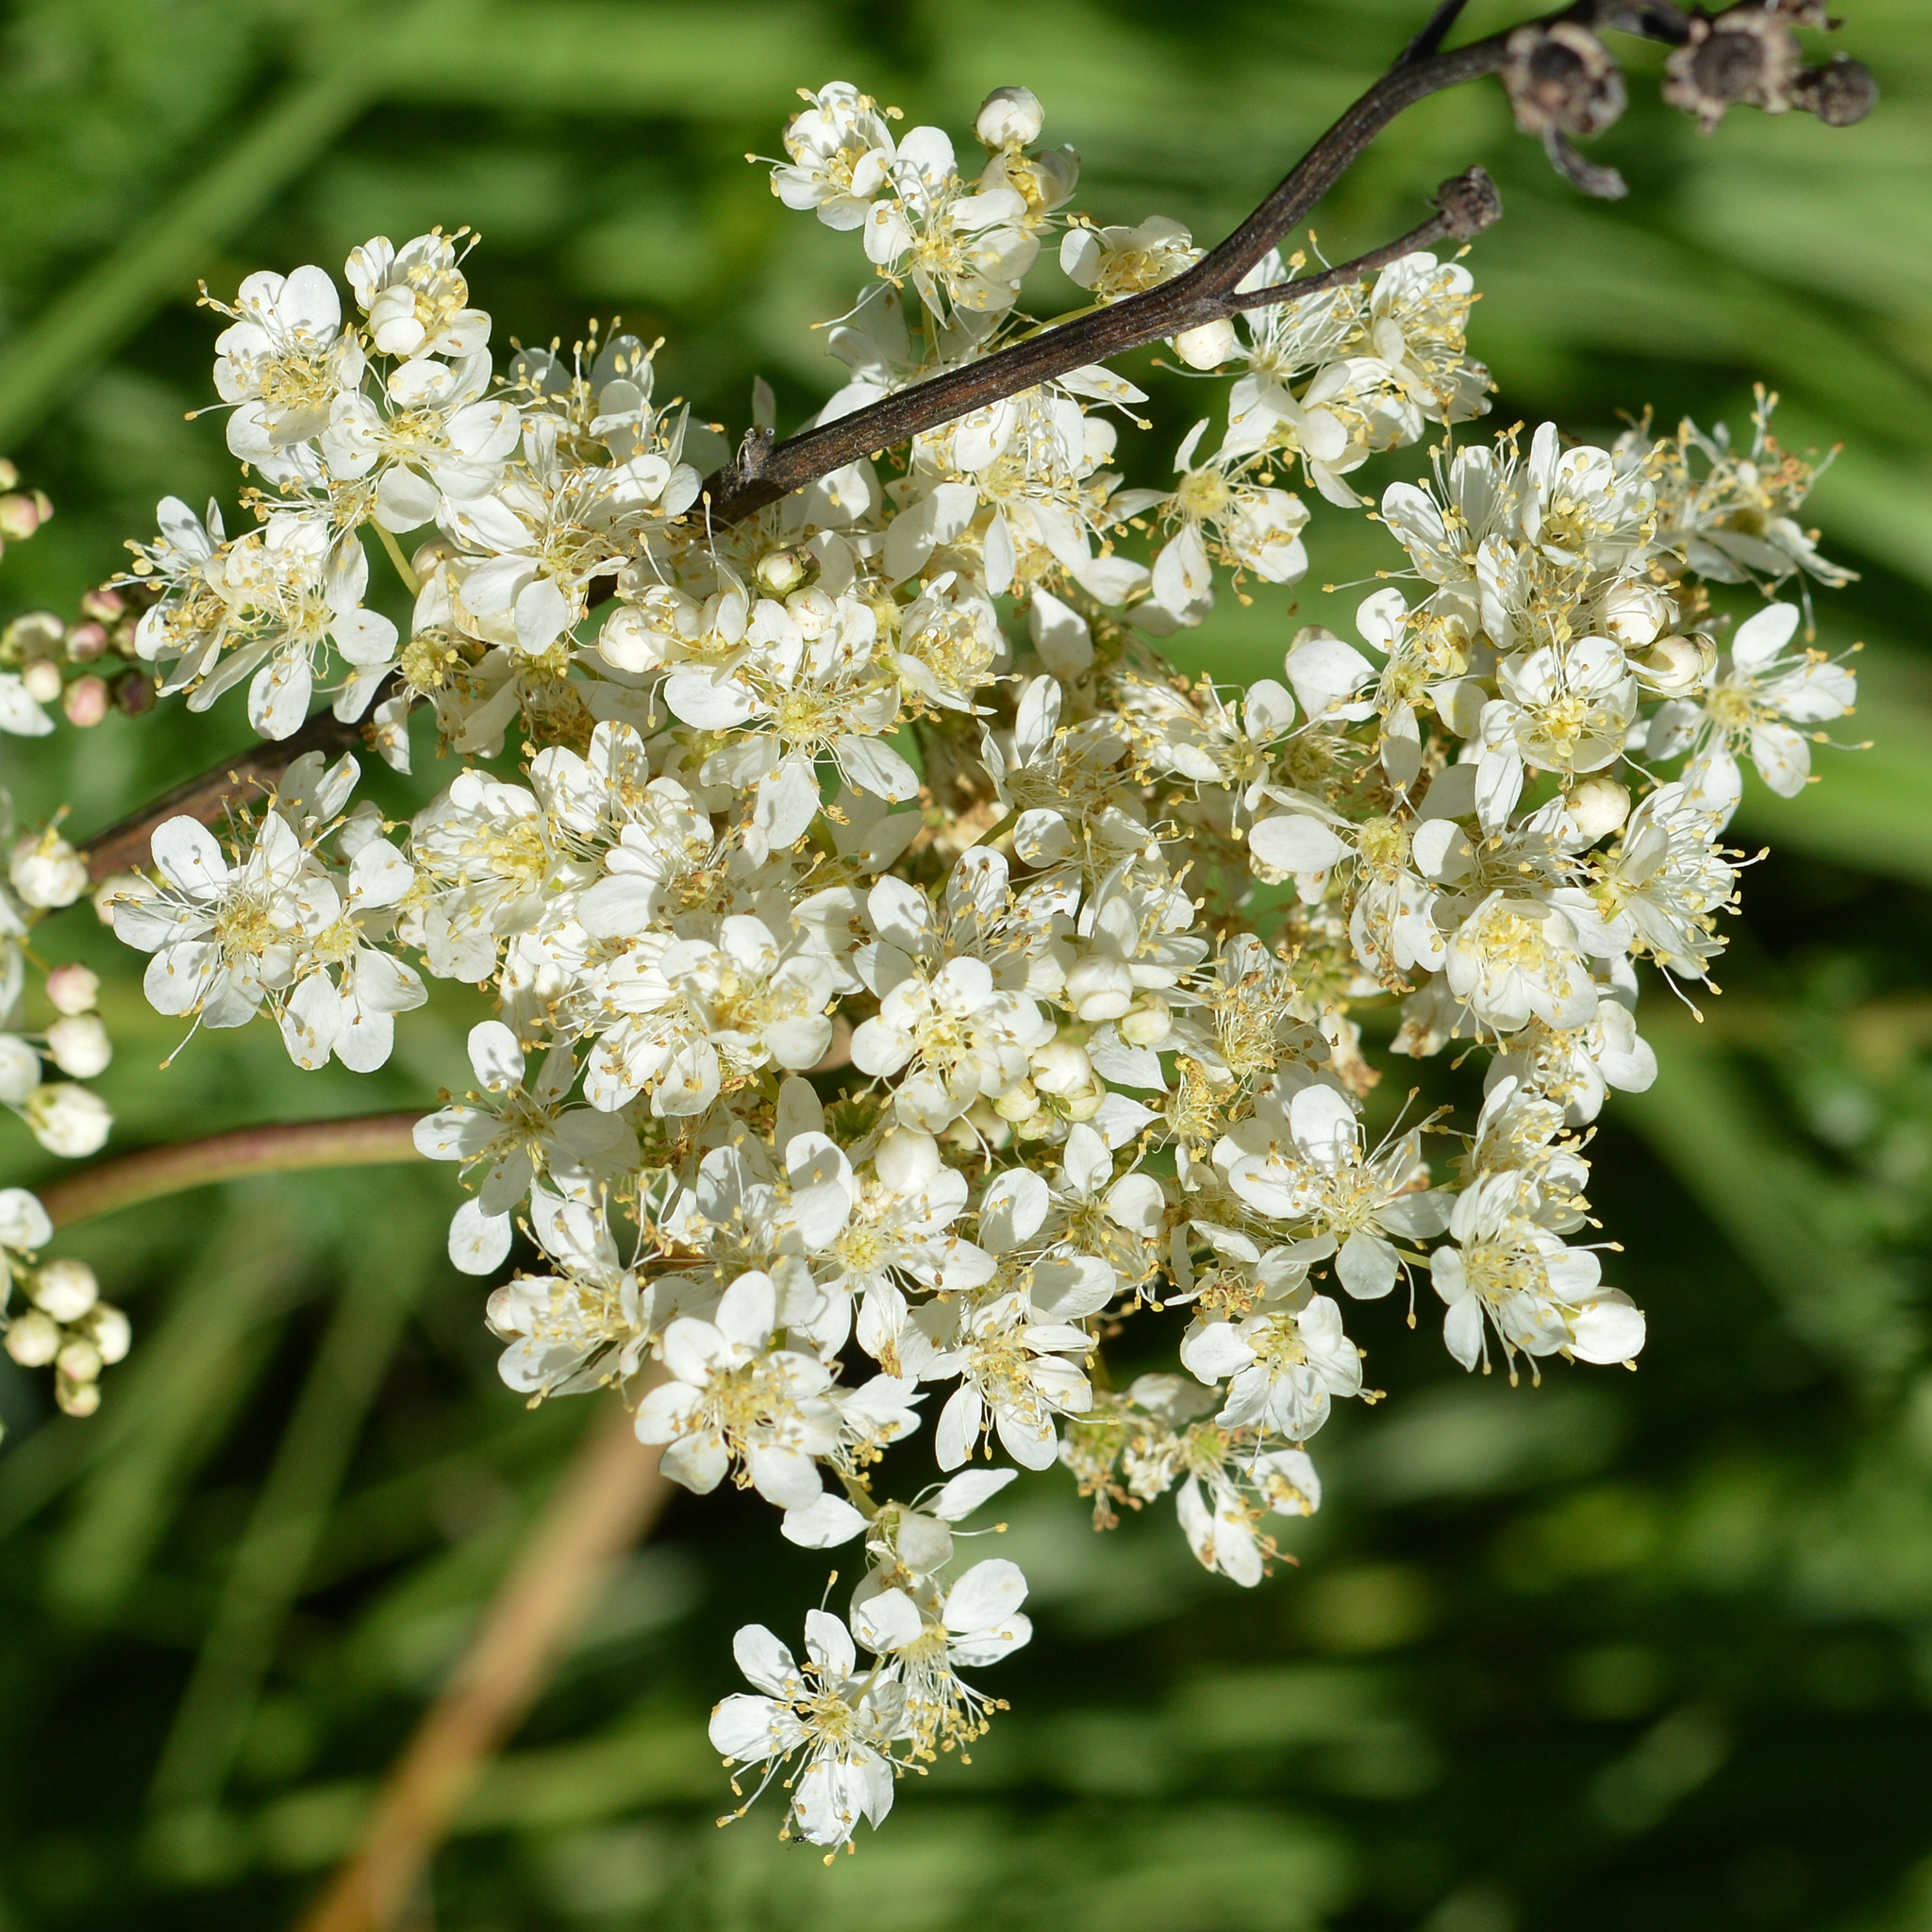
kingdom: Plantae
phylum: Tracheophyta
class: Magnoliopsida
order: Rosales
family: Rosaceae
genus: Filipendula
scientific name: Filipendula vulgaris
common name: Dropwort
